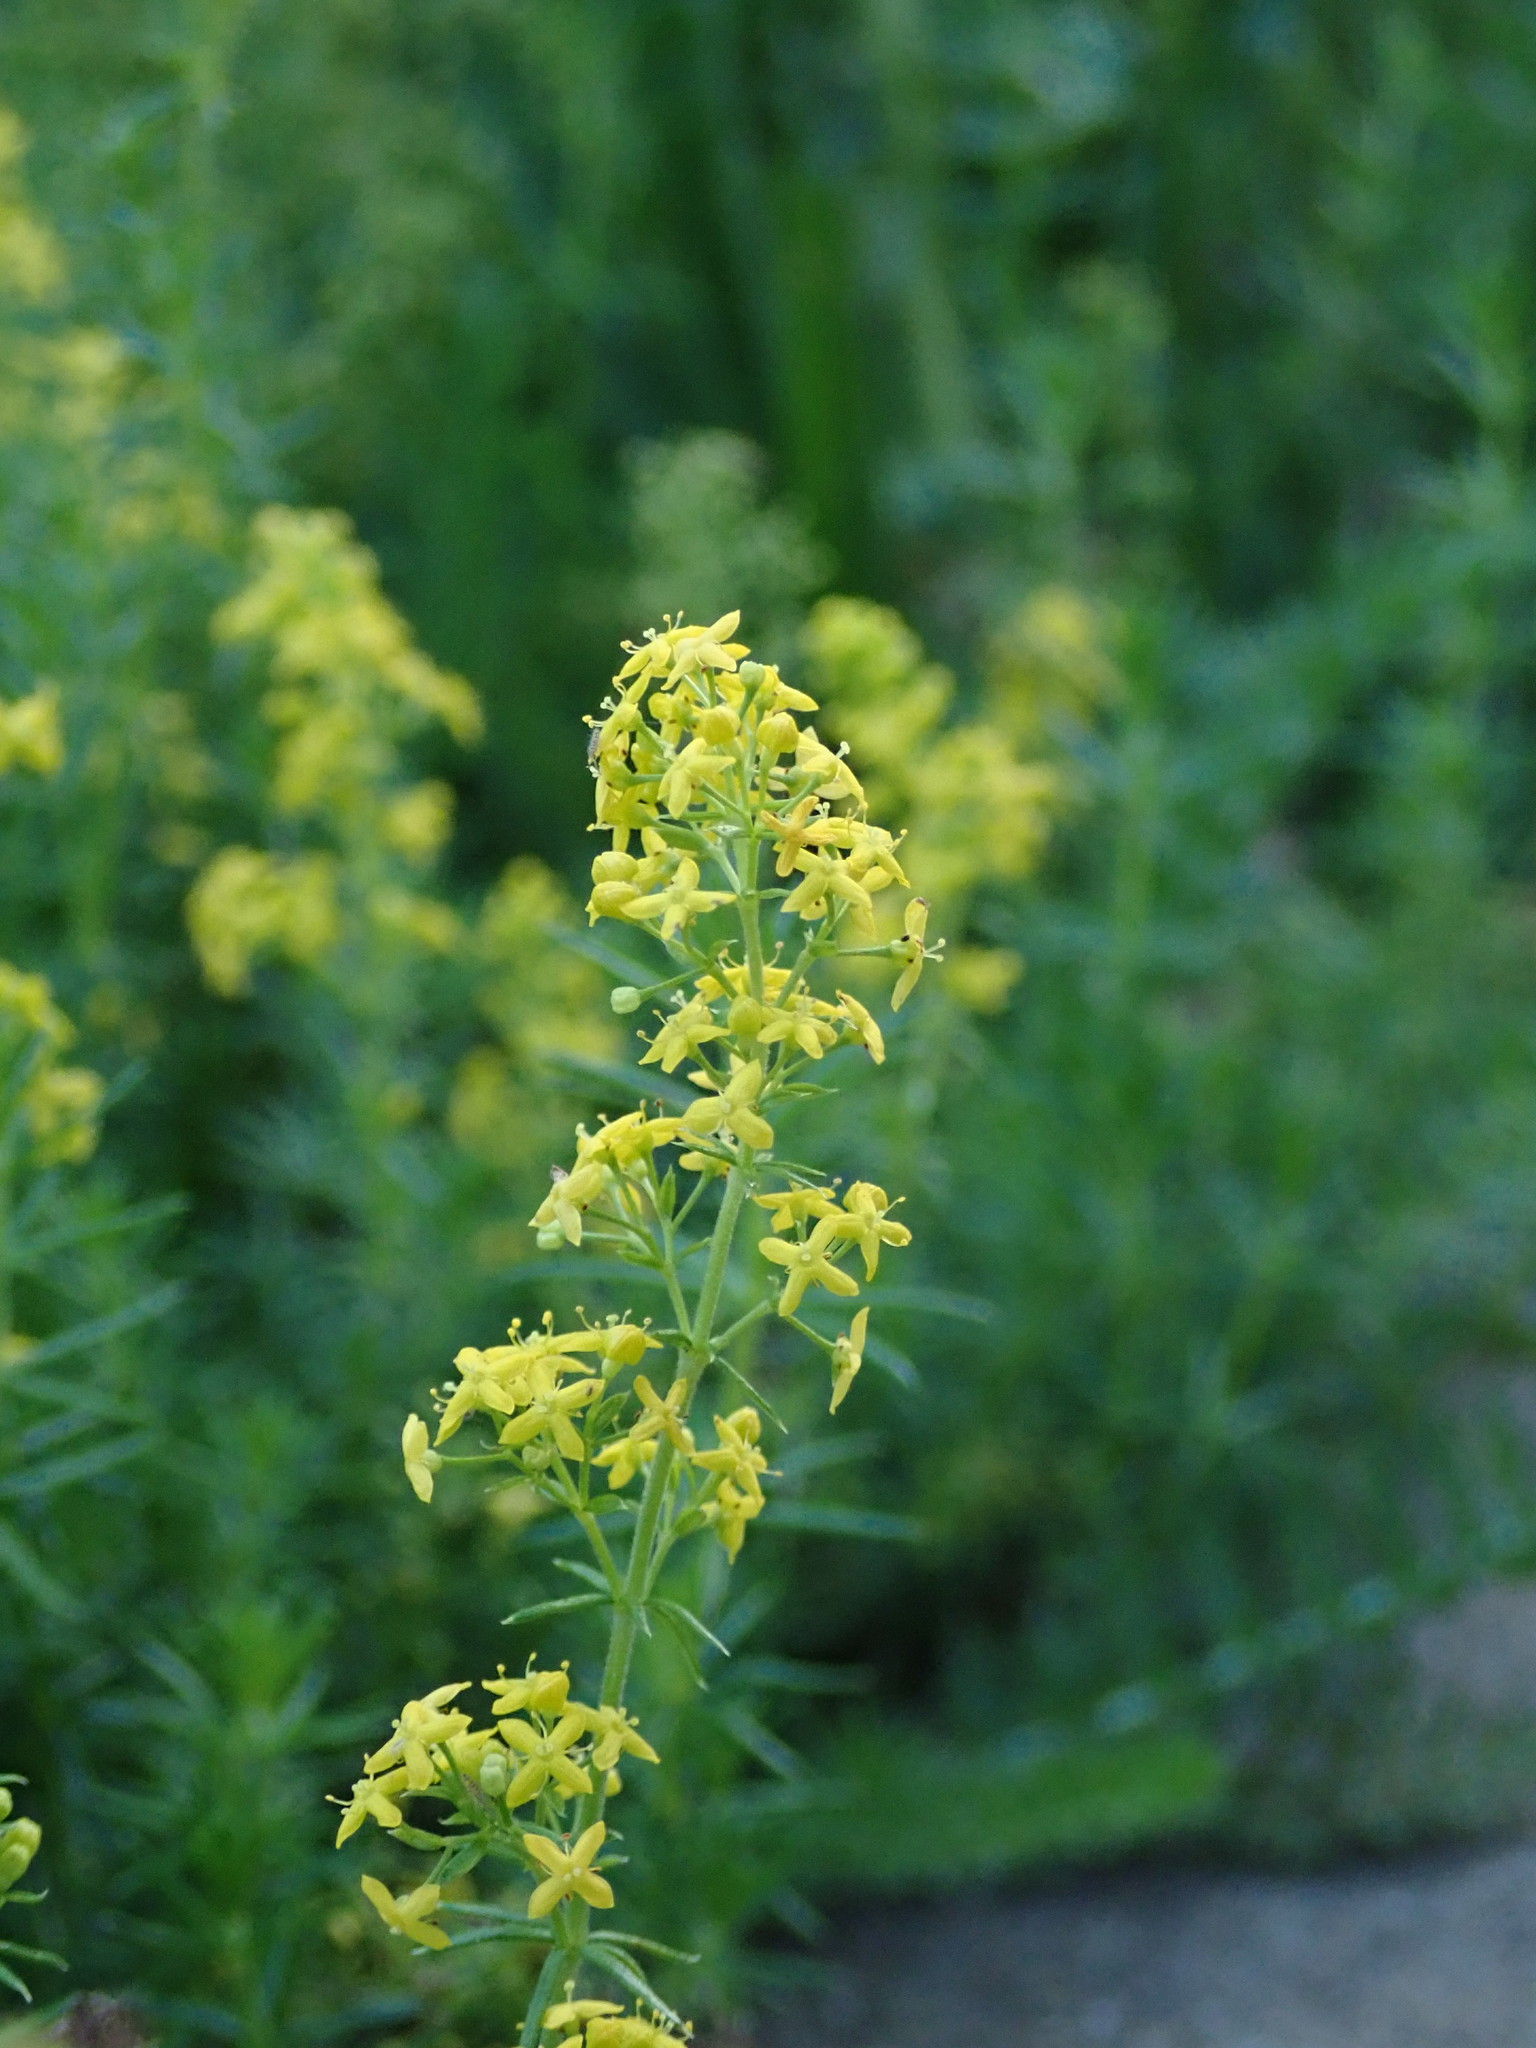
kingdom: Plantae
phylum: Tracheophyta
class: Magnoliopsida
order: Gentianales
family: Rubiaceae
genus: Galium
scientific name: Galium verum
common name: Lady's bedstraw
